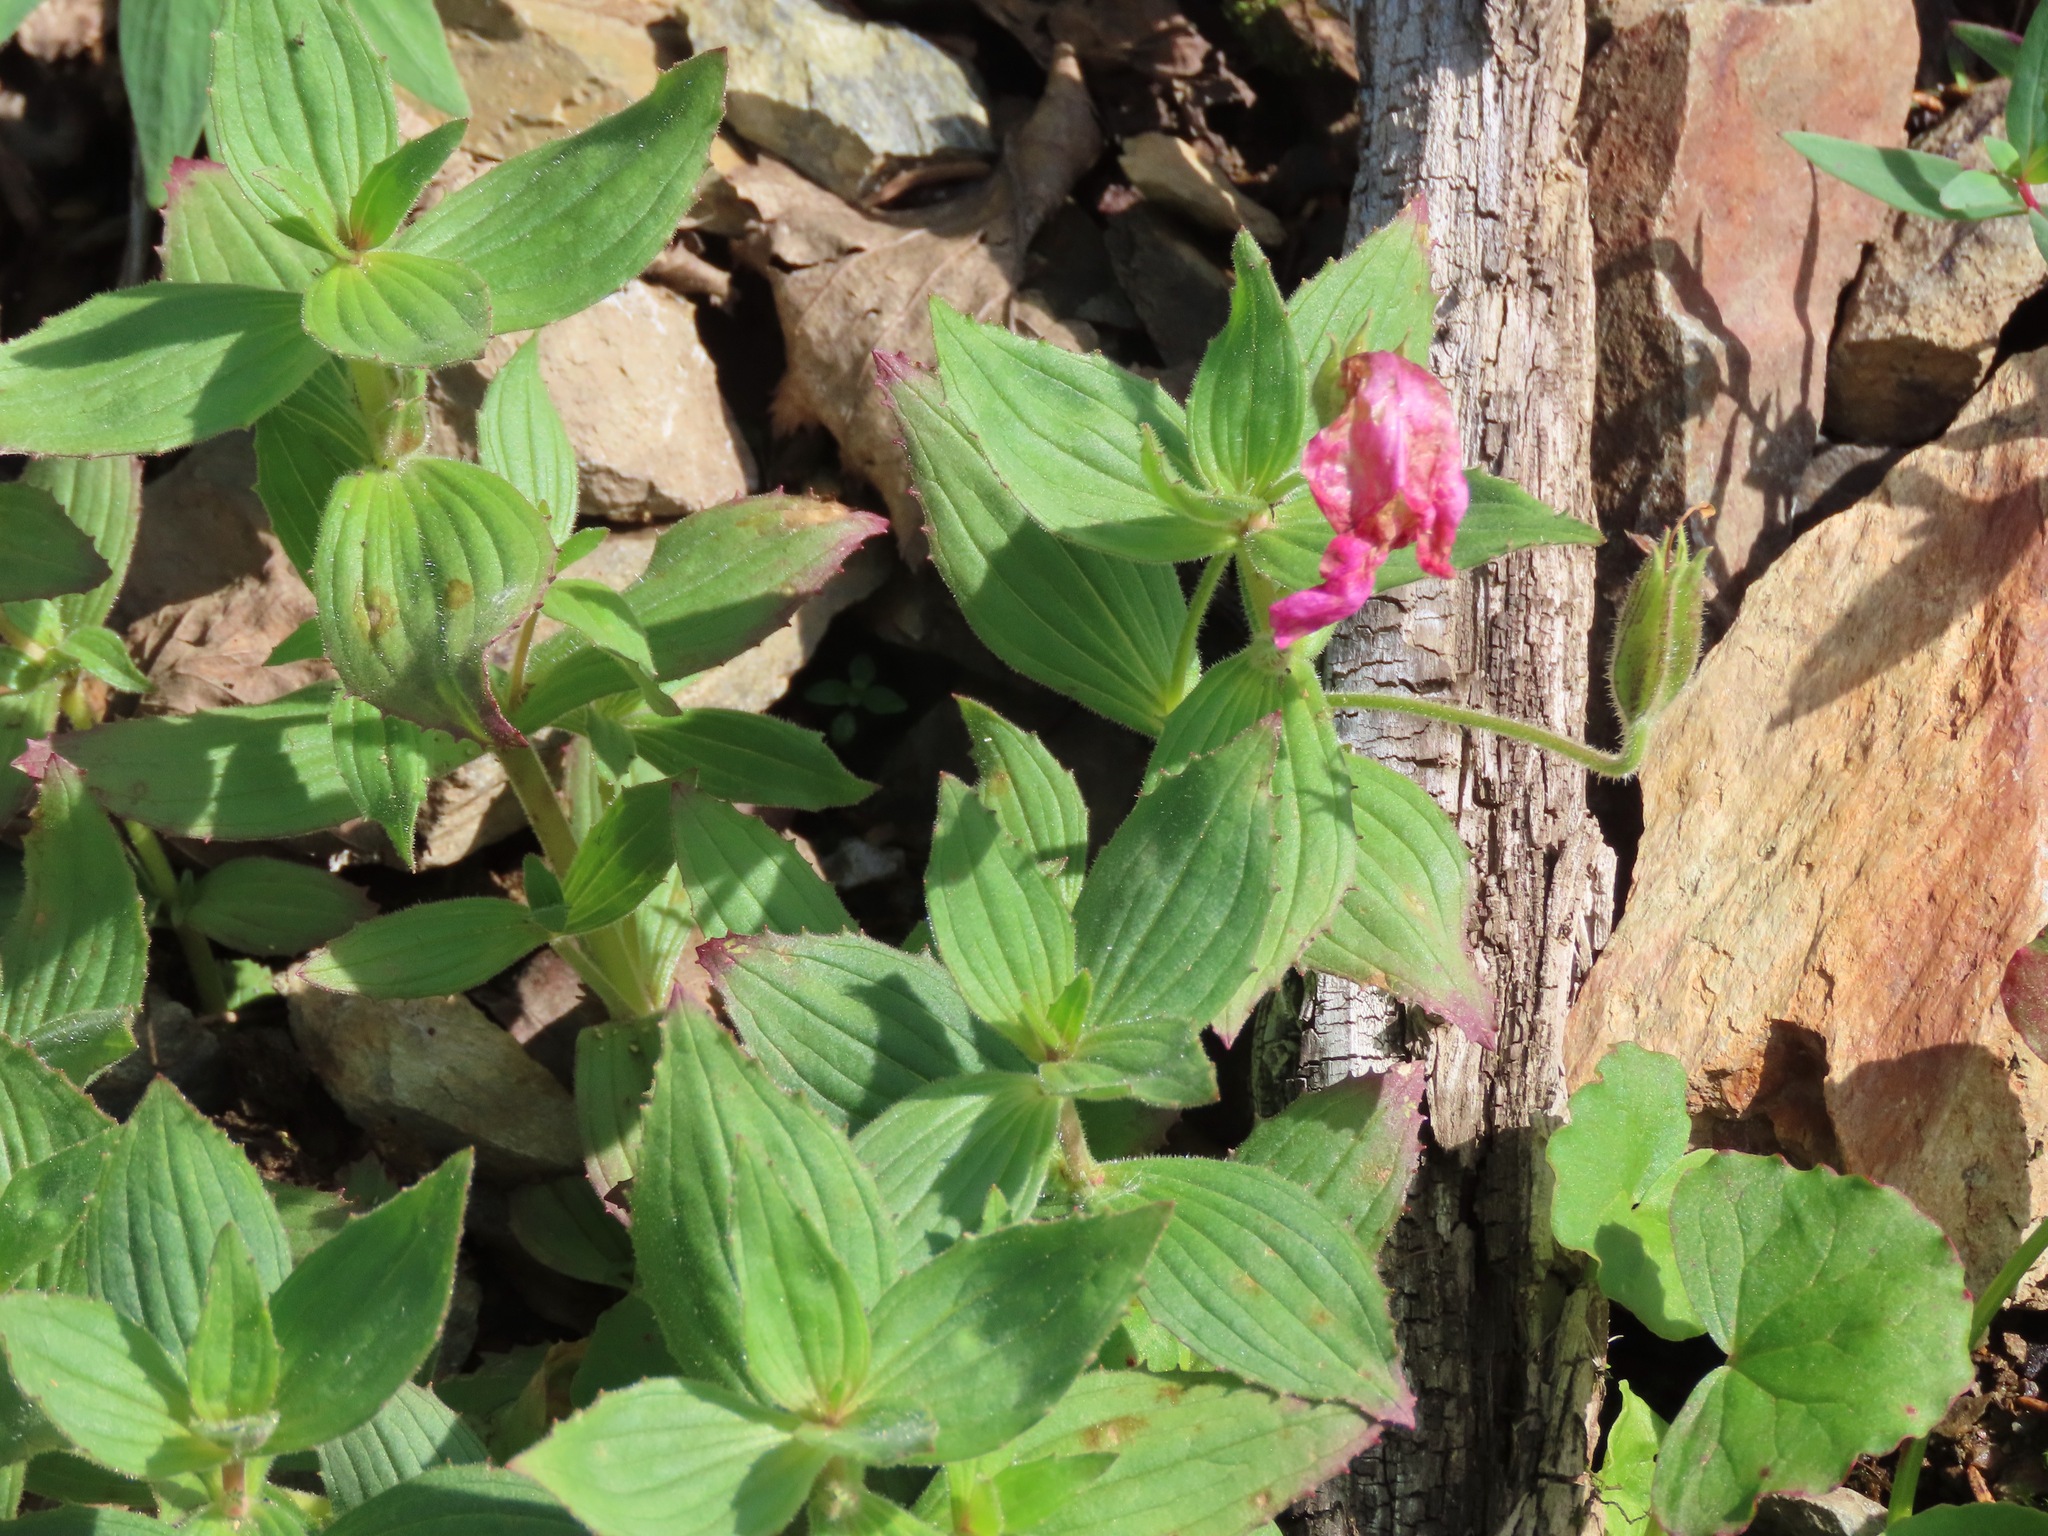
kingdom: Plantae
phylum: Tracheophyta
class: Magnoliopsida
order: Lamiales
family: Phrymaceae
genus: Erythranthe
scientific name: Erythranthe lewisii
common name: Lewis's monkey-flower
